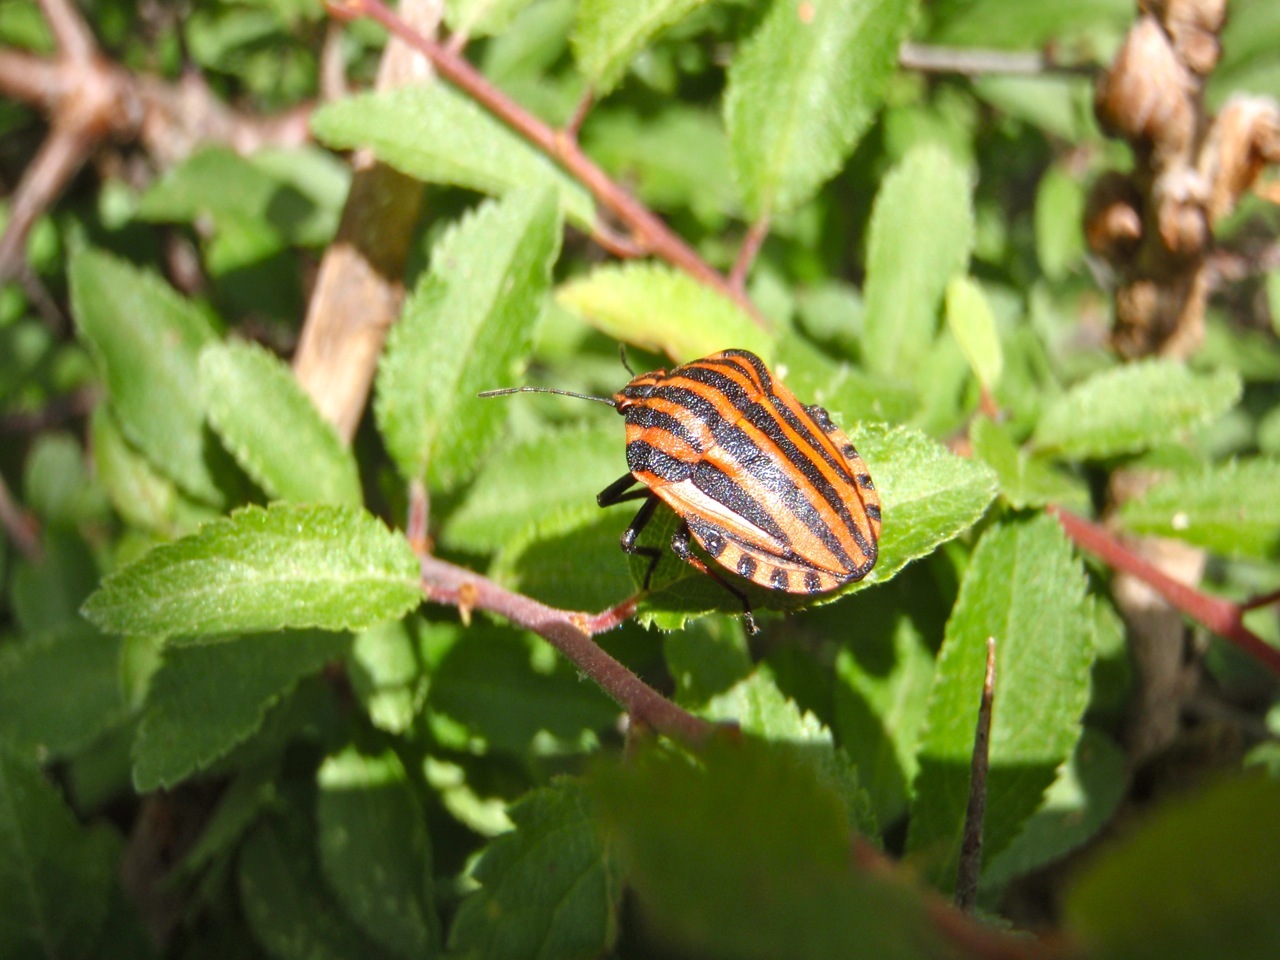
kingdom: Animalia
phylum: Arthropoda
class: Insecta
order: Hemiptera
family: Pentatomidae
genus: Graphosoma
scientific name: Graphosoma italicum
